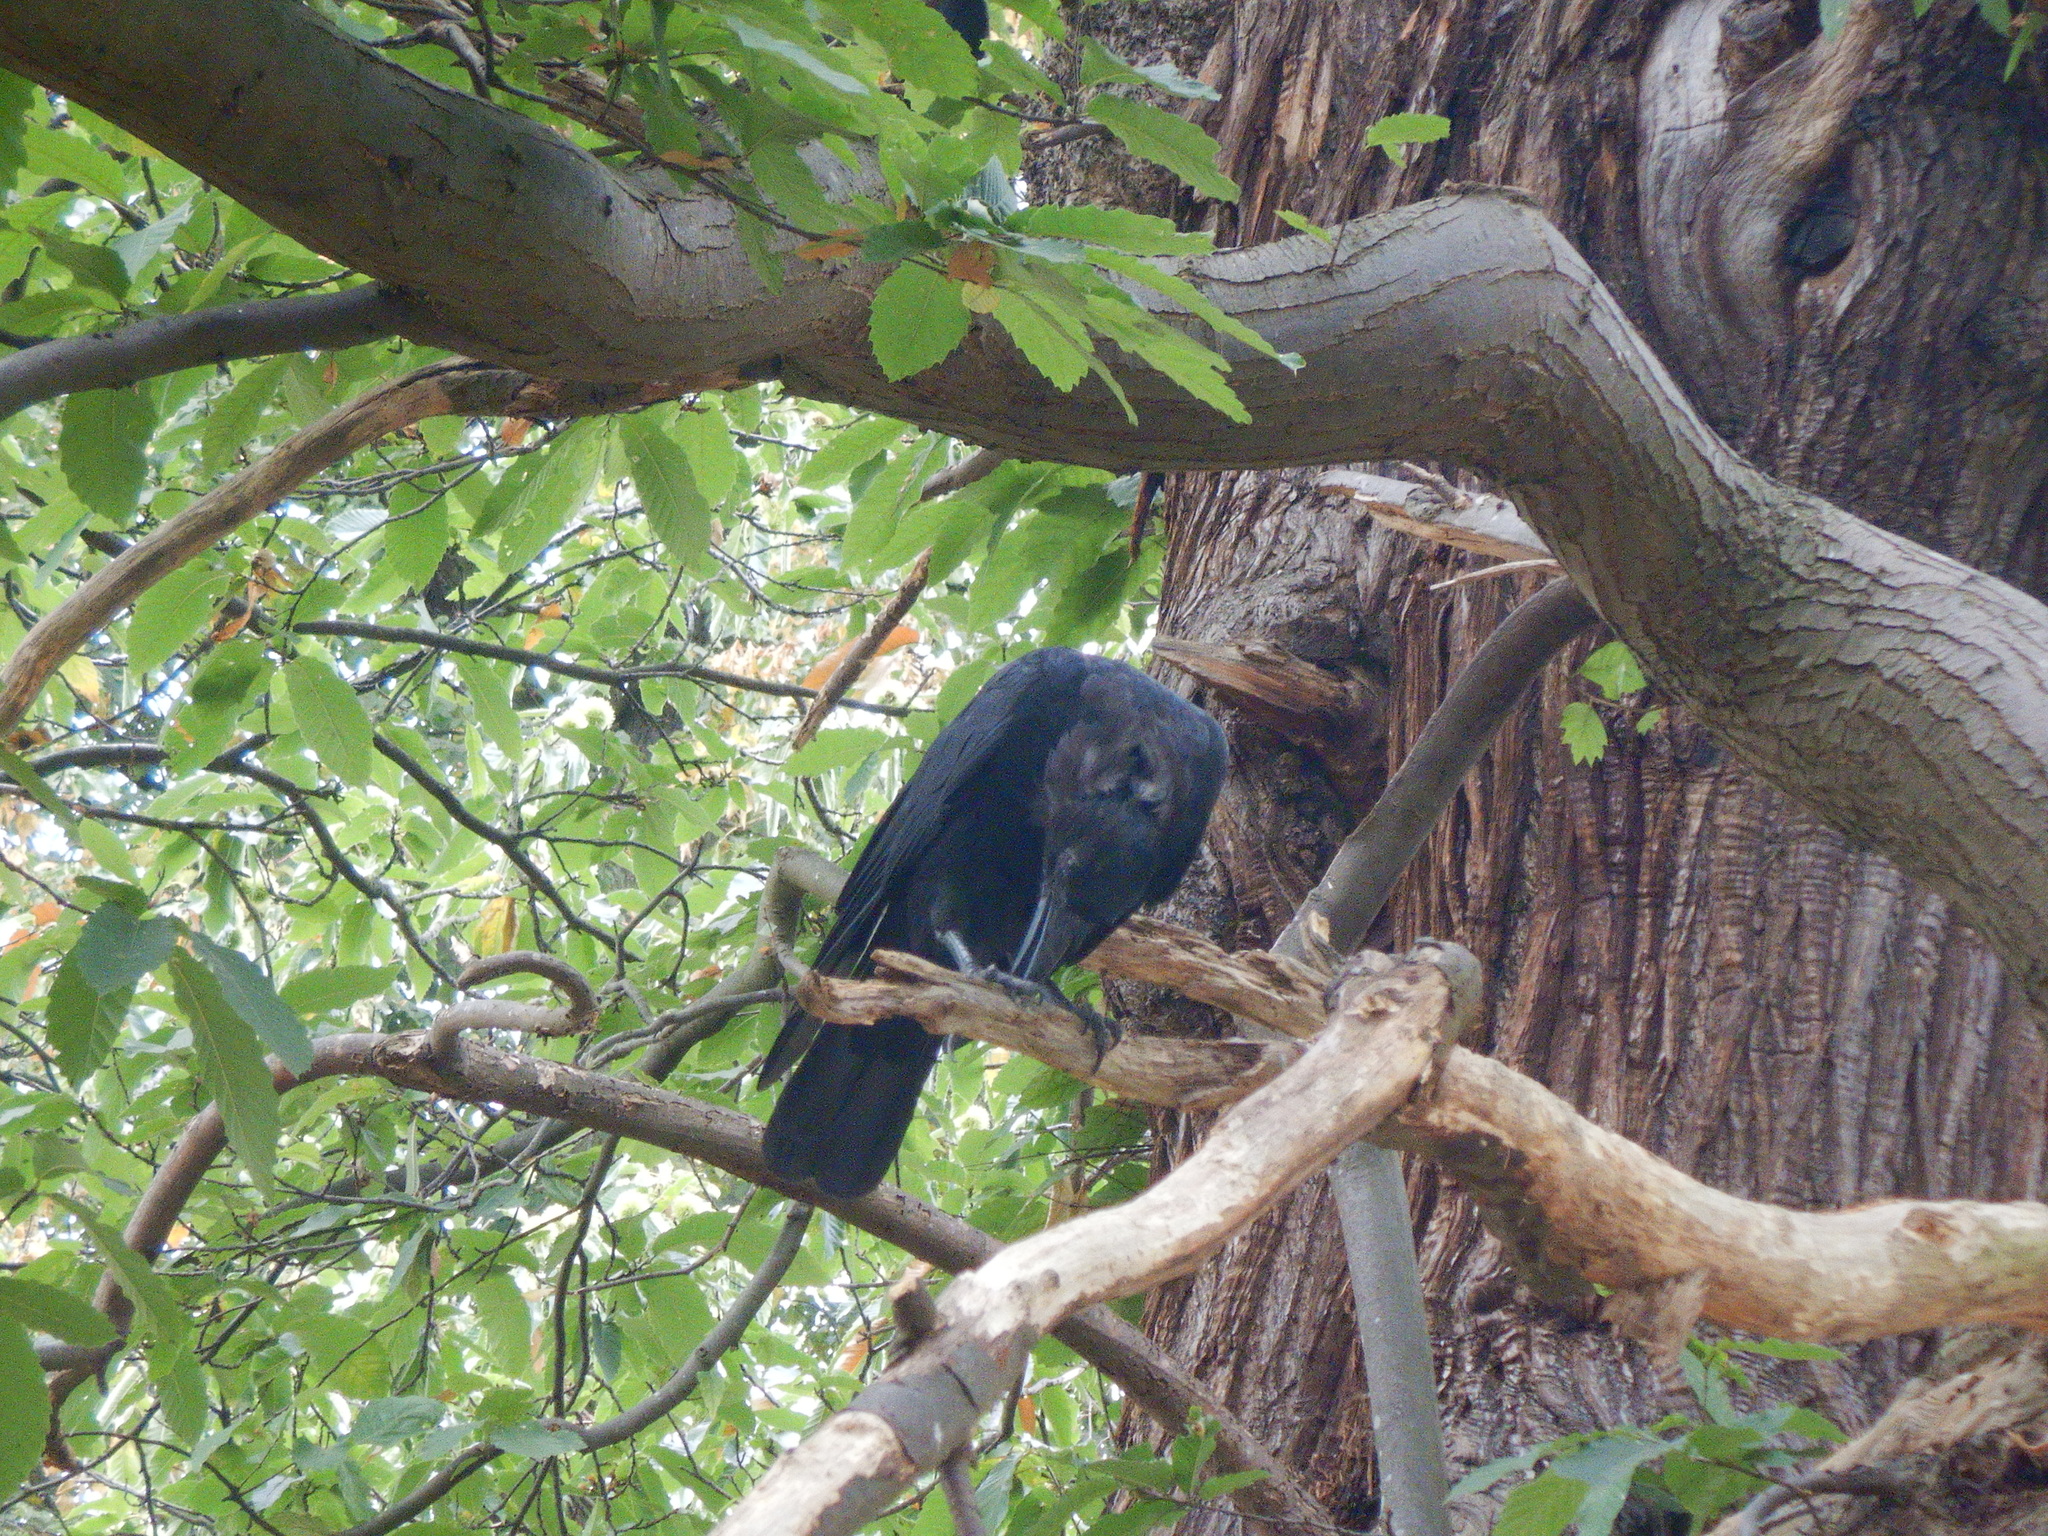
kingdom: Animalia
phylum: Chordata
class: Aves
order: Passeriformes
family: Corvidae
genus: Corvus
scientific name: Corvus corone
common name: Carrion crow
